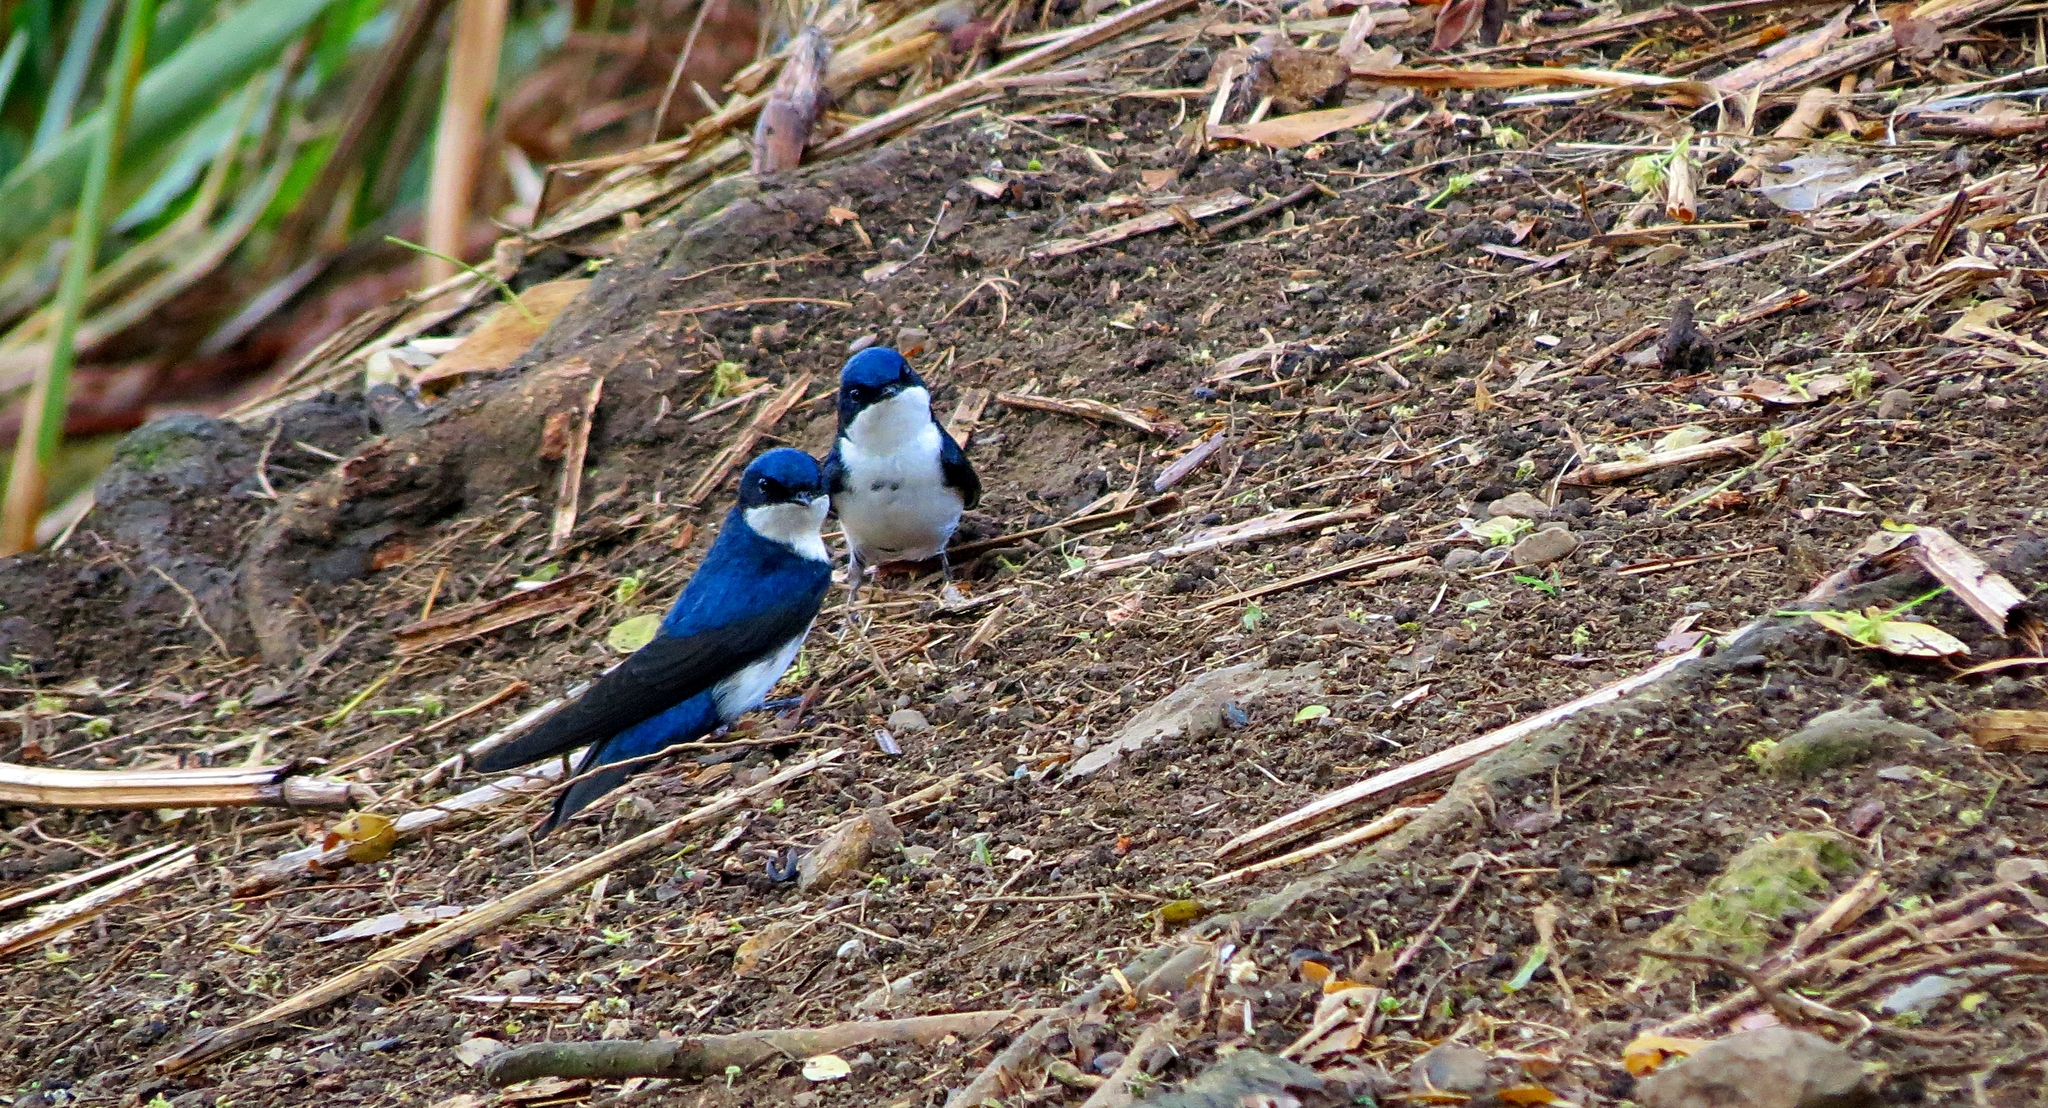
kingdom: Animalia
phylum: Chordata
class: Aves
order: Passeriformes
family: Hirundinidae
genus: Notiochelidon
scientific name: Notiochelidon cyanoleuca
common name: Blue-and-white swallow
